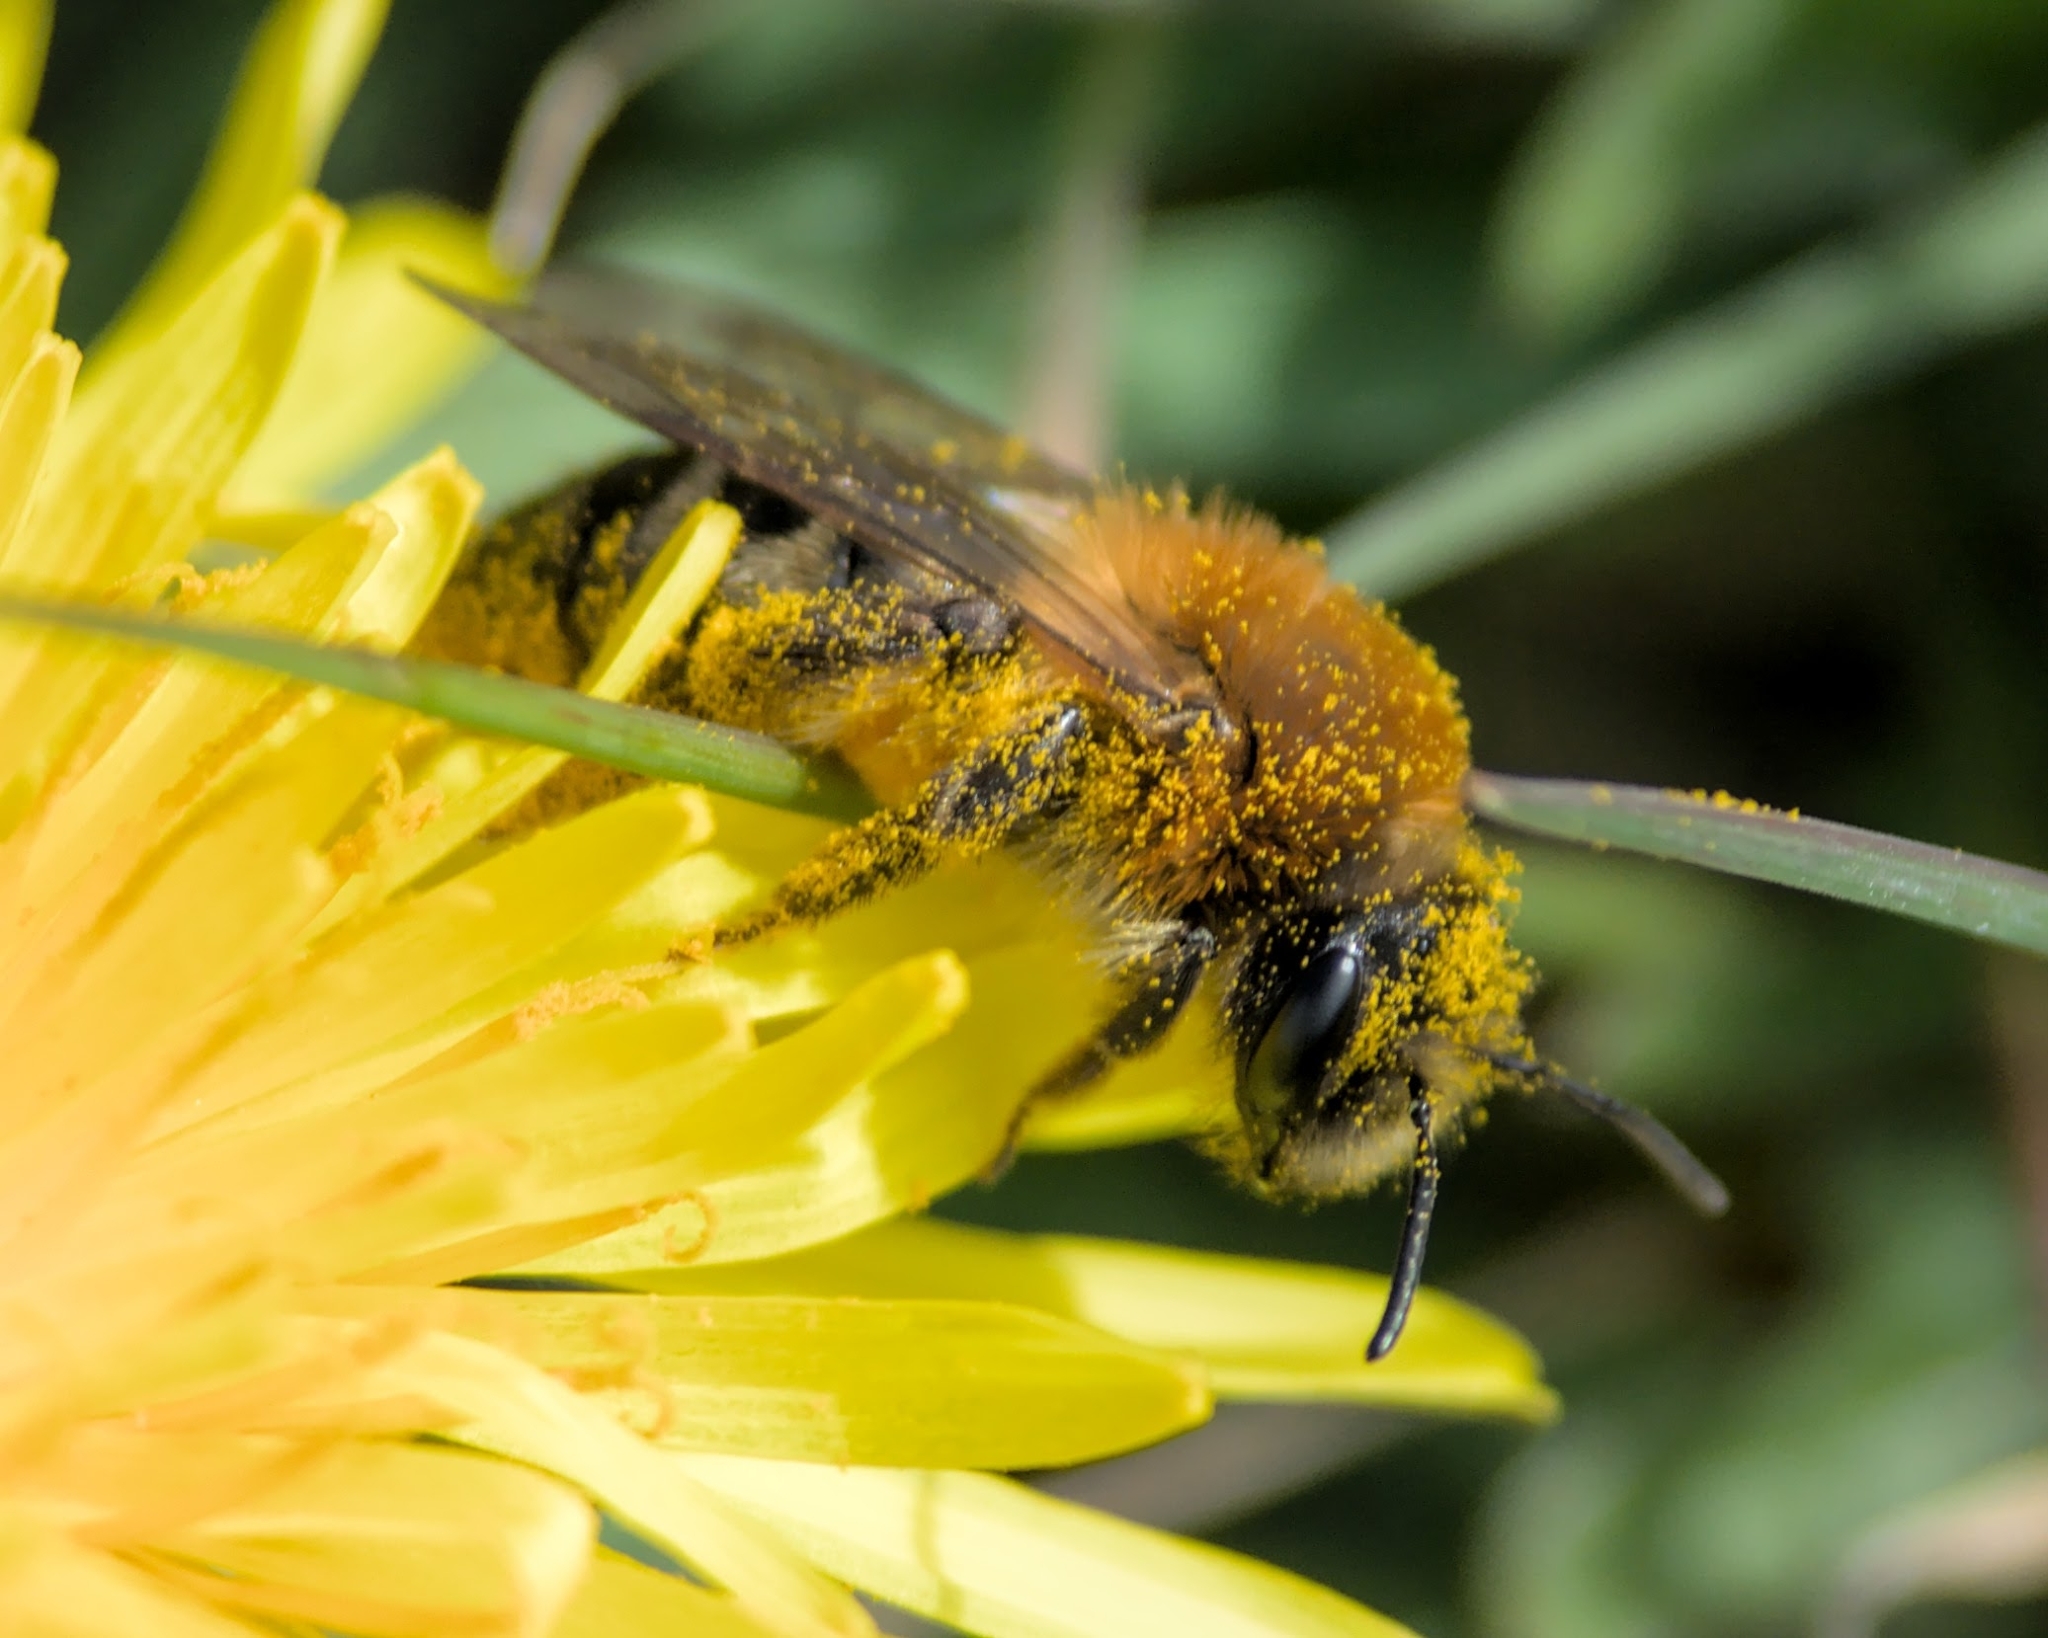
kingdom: Animalia
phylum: Arthropoda
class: Insecta
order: Hymenoptera
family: Andrenidae
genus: Andrena
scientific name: Andrena nitida
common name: Grey-patched mining bee
